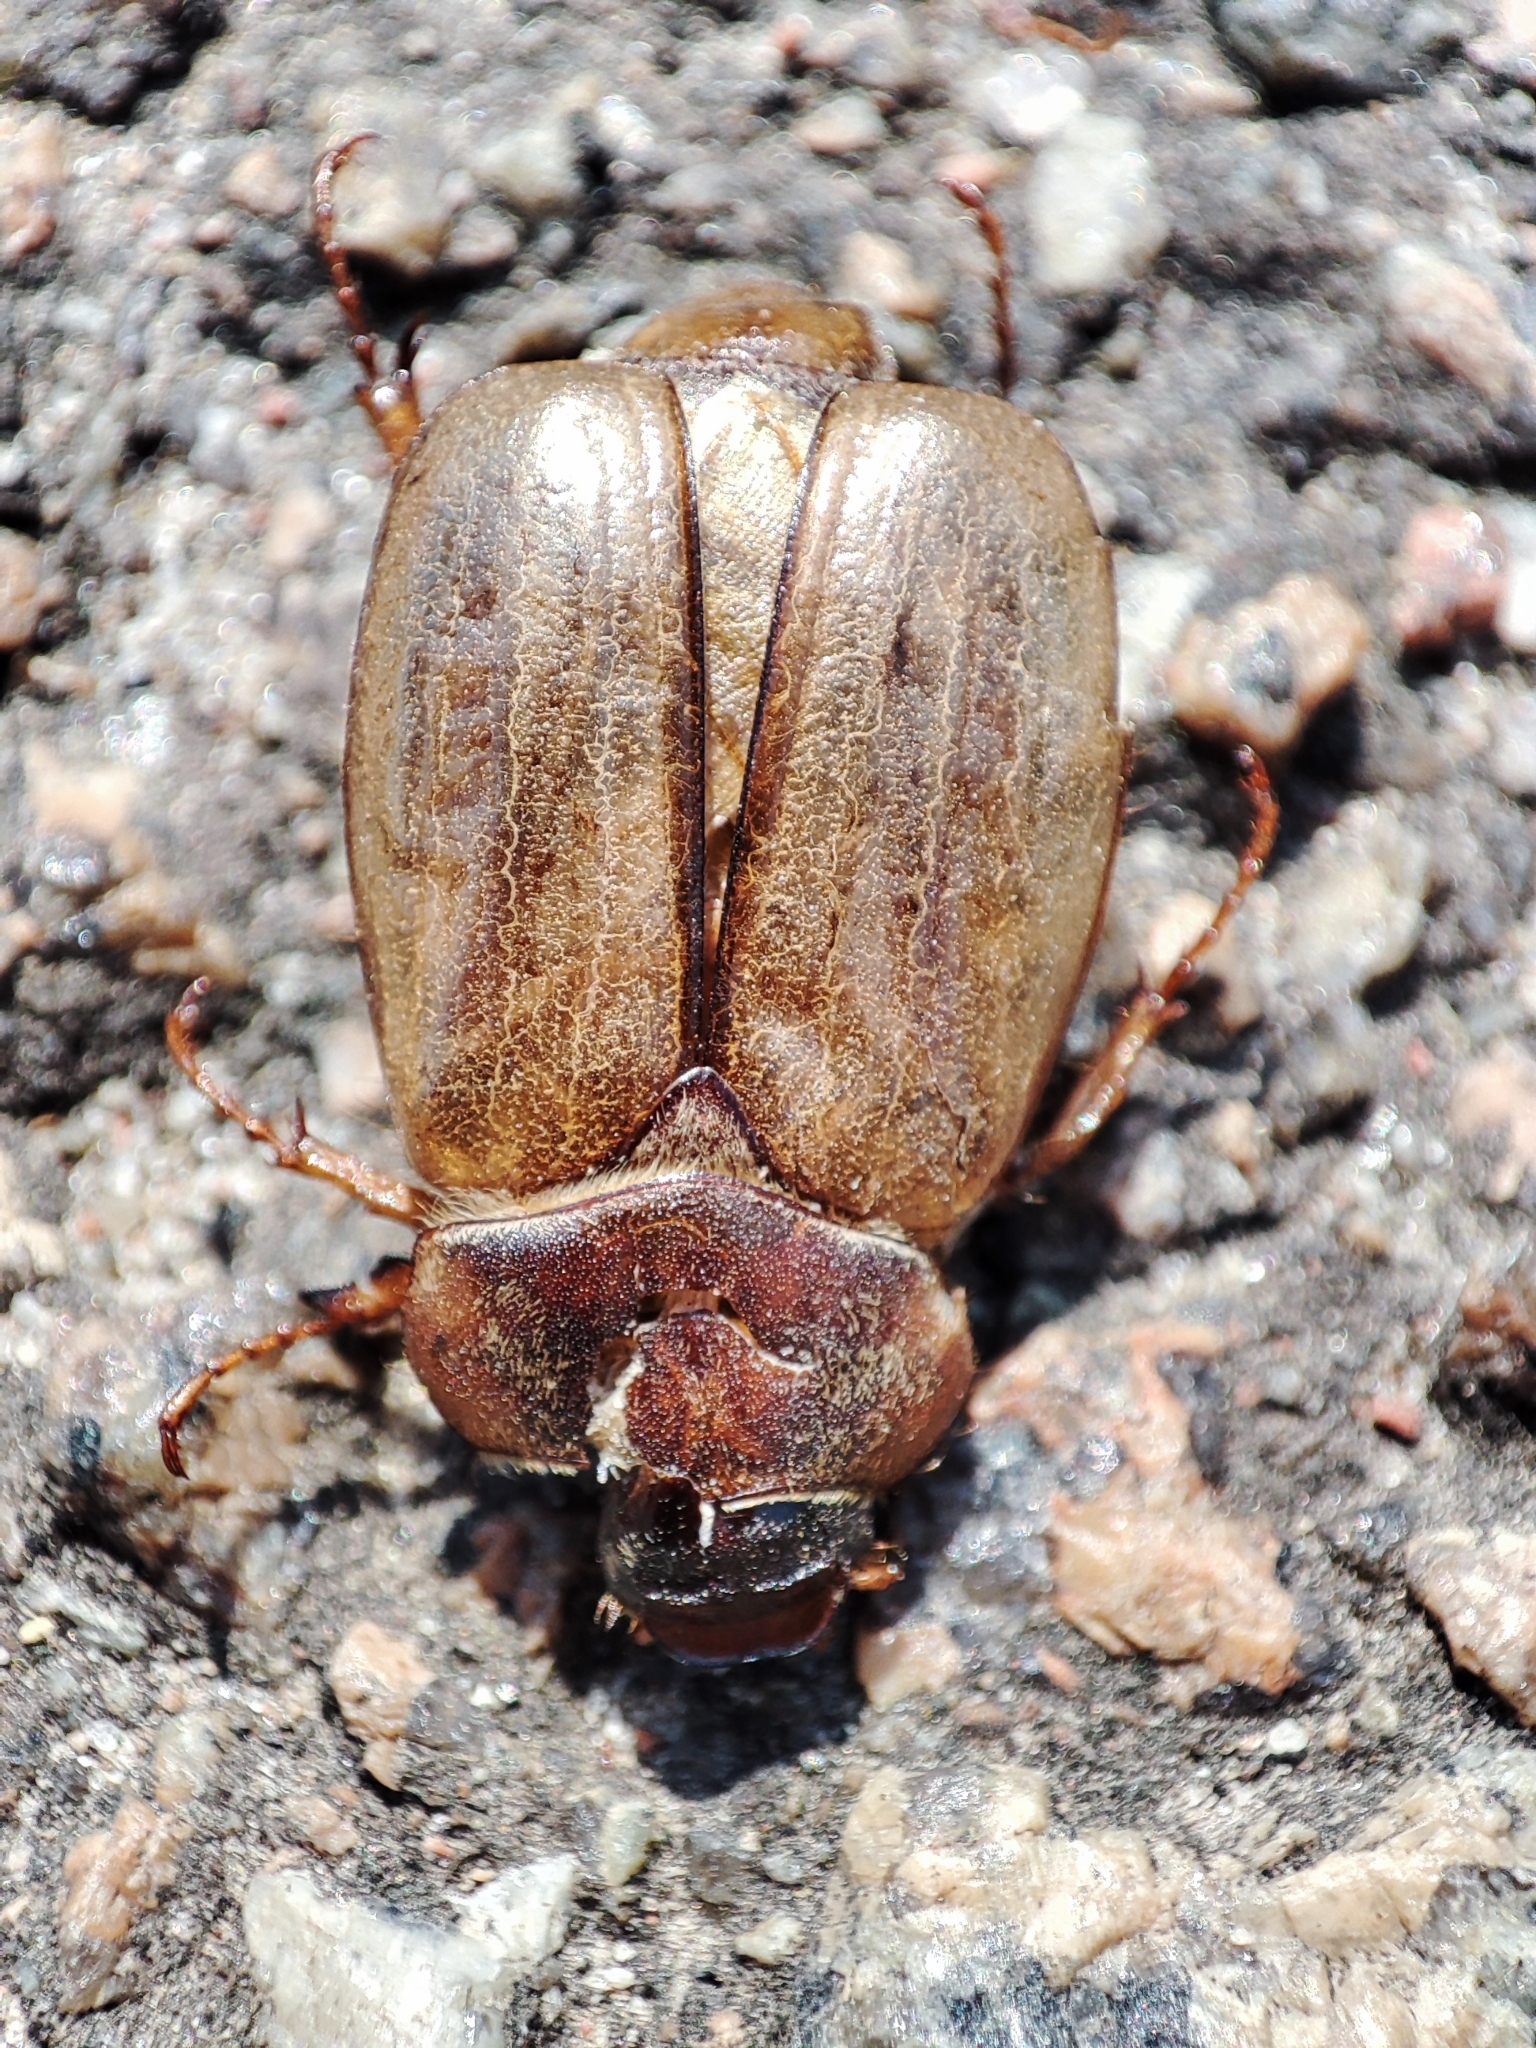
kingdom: Animalia
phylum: Arthropoda
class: Insecta
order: Coleoptera
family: Scarabaeidae
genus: Amphimallon
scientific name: Amphimallon solstitiale
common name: Summer chafer
